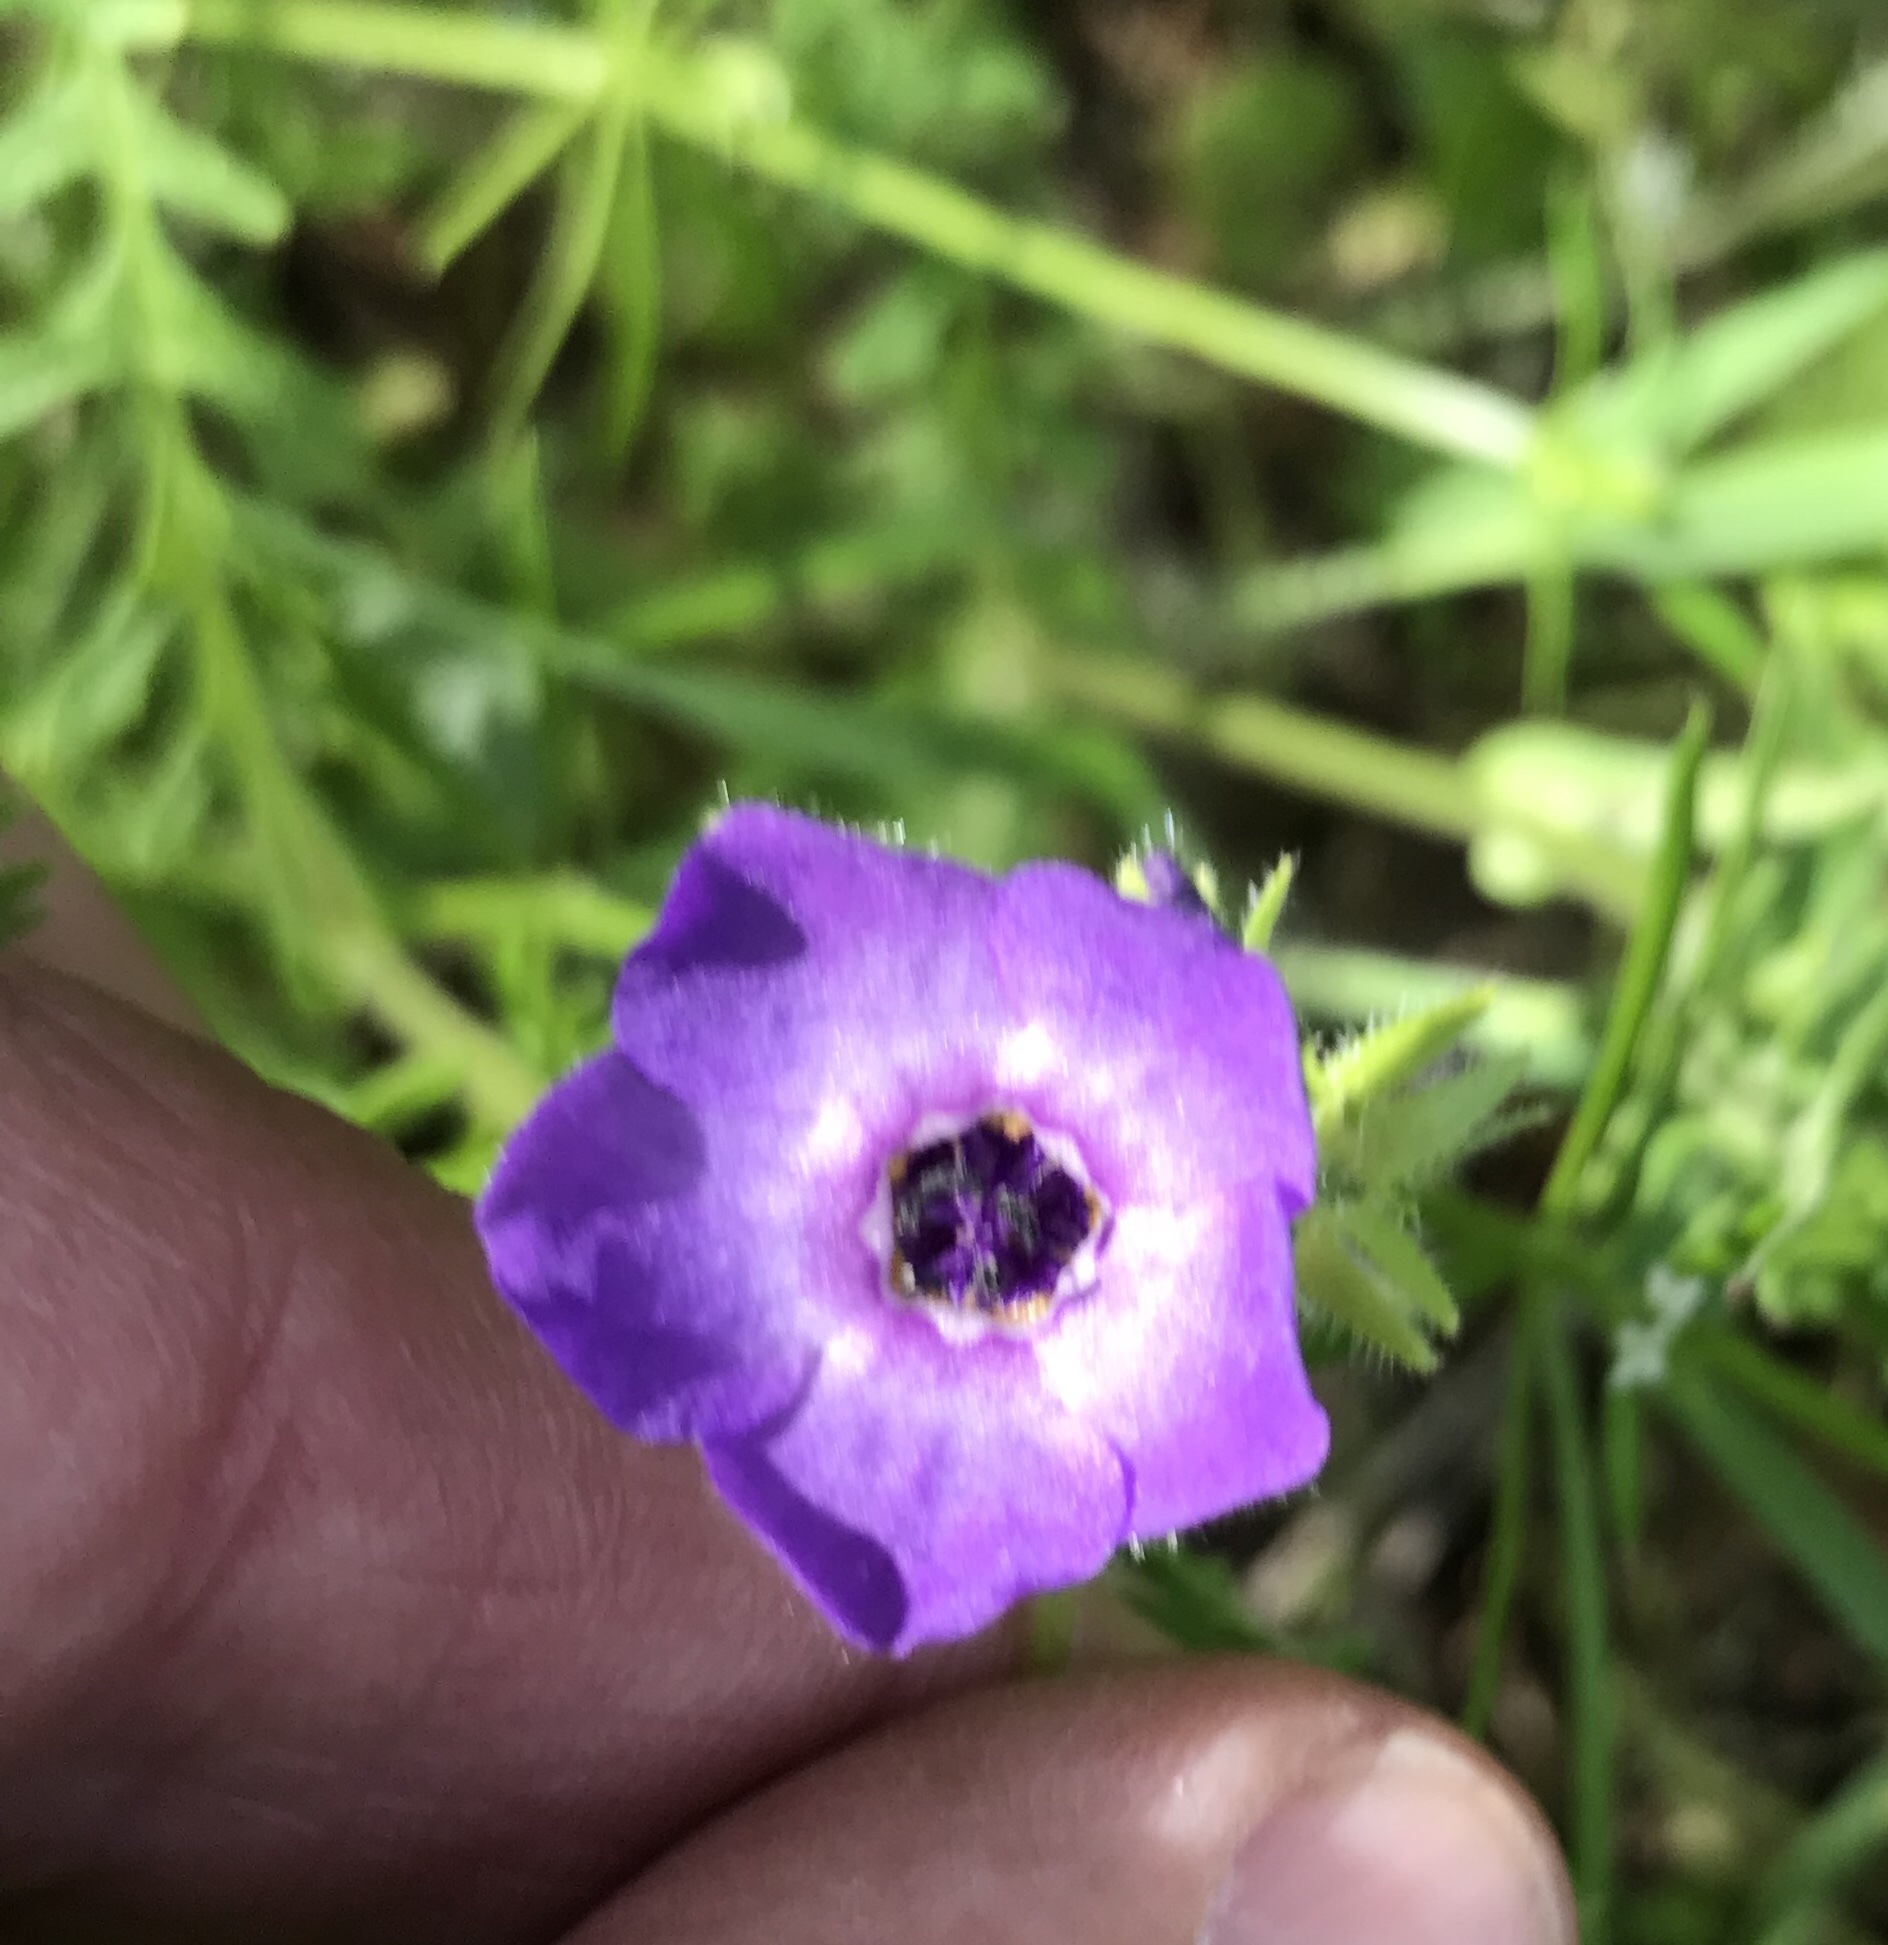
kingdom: Plantae
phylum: Tracheophyta
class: Magnoliopsida
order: Boraginales
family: Hydrophyllaceae
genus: Pholistoma
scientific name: Pholistoma auritum
